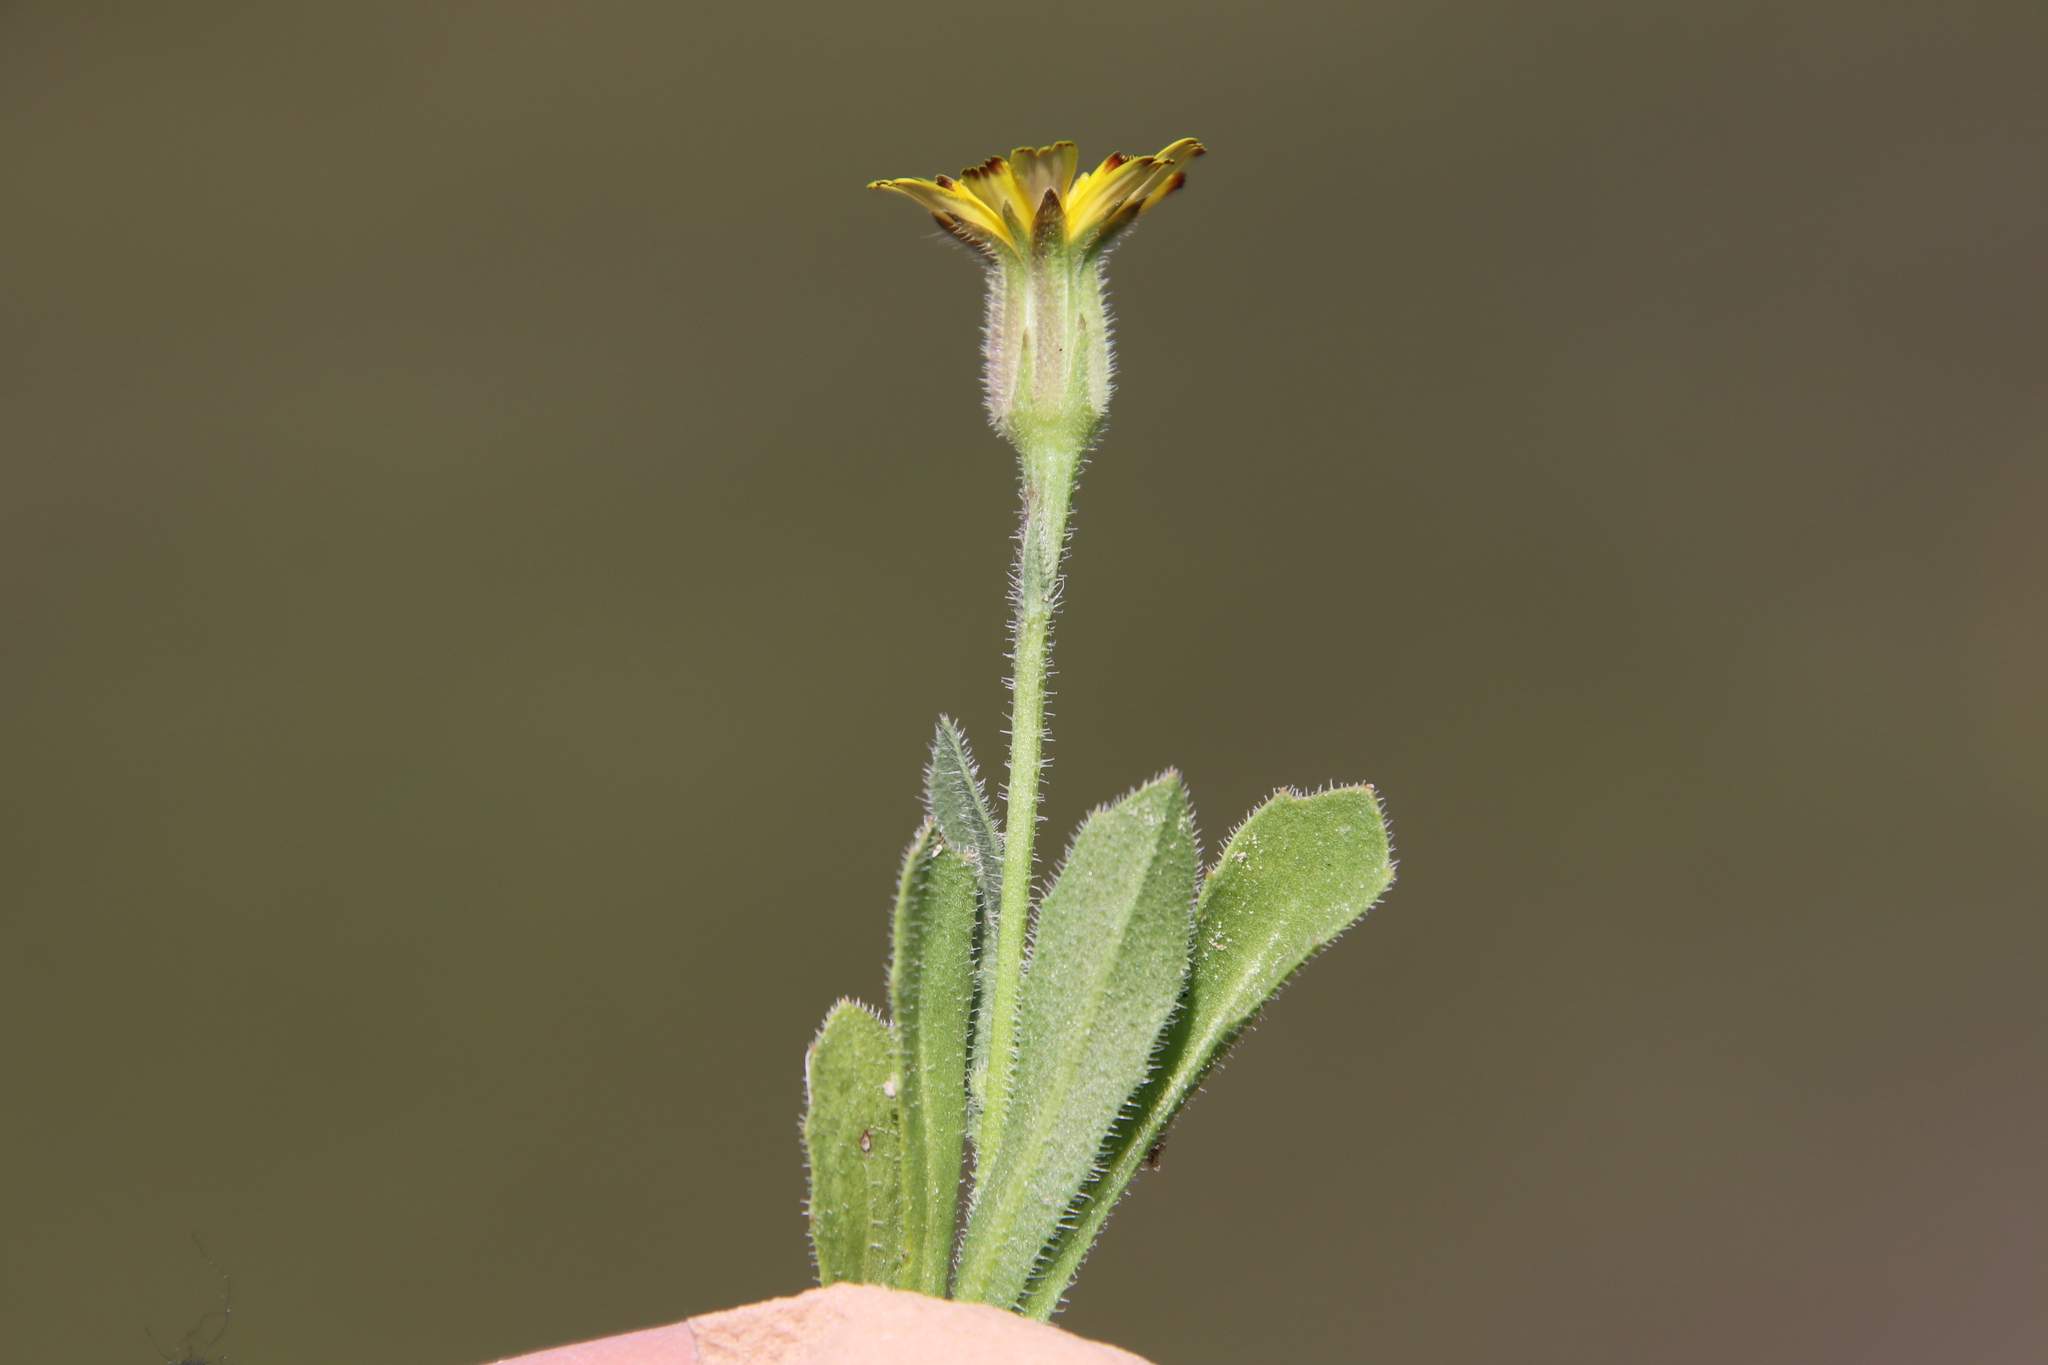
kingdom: Plantae
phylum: Tracheophyta
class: Magnoliopsida
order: Asterales
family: Asteraceae
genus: Hedypnois
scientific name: Hedypnois rhagadioloides
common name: Cretan weed
